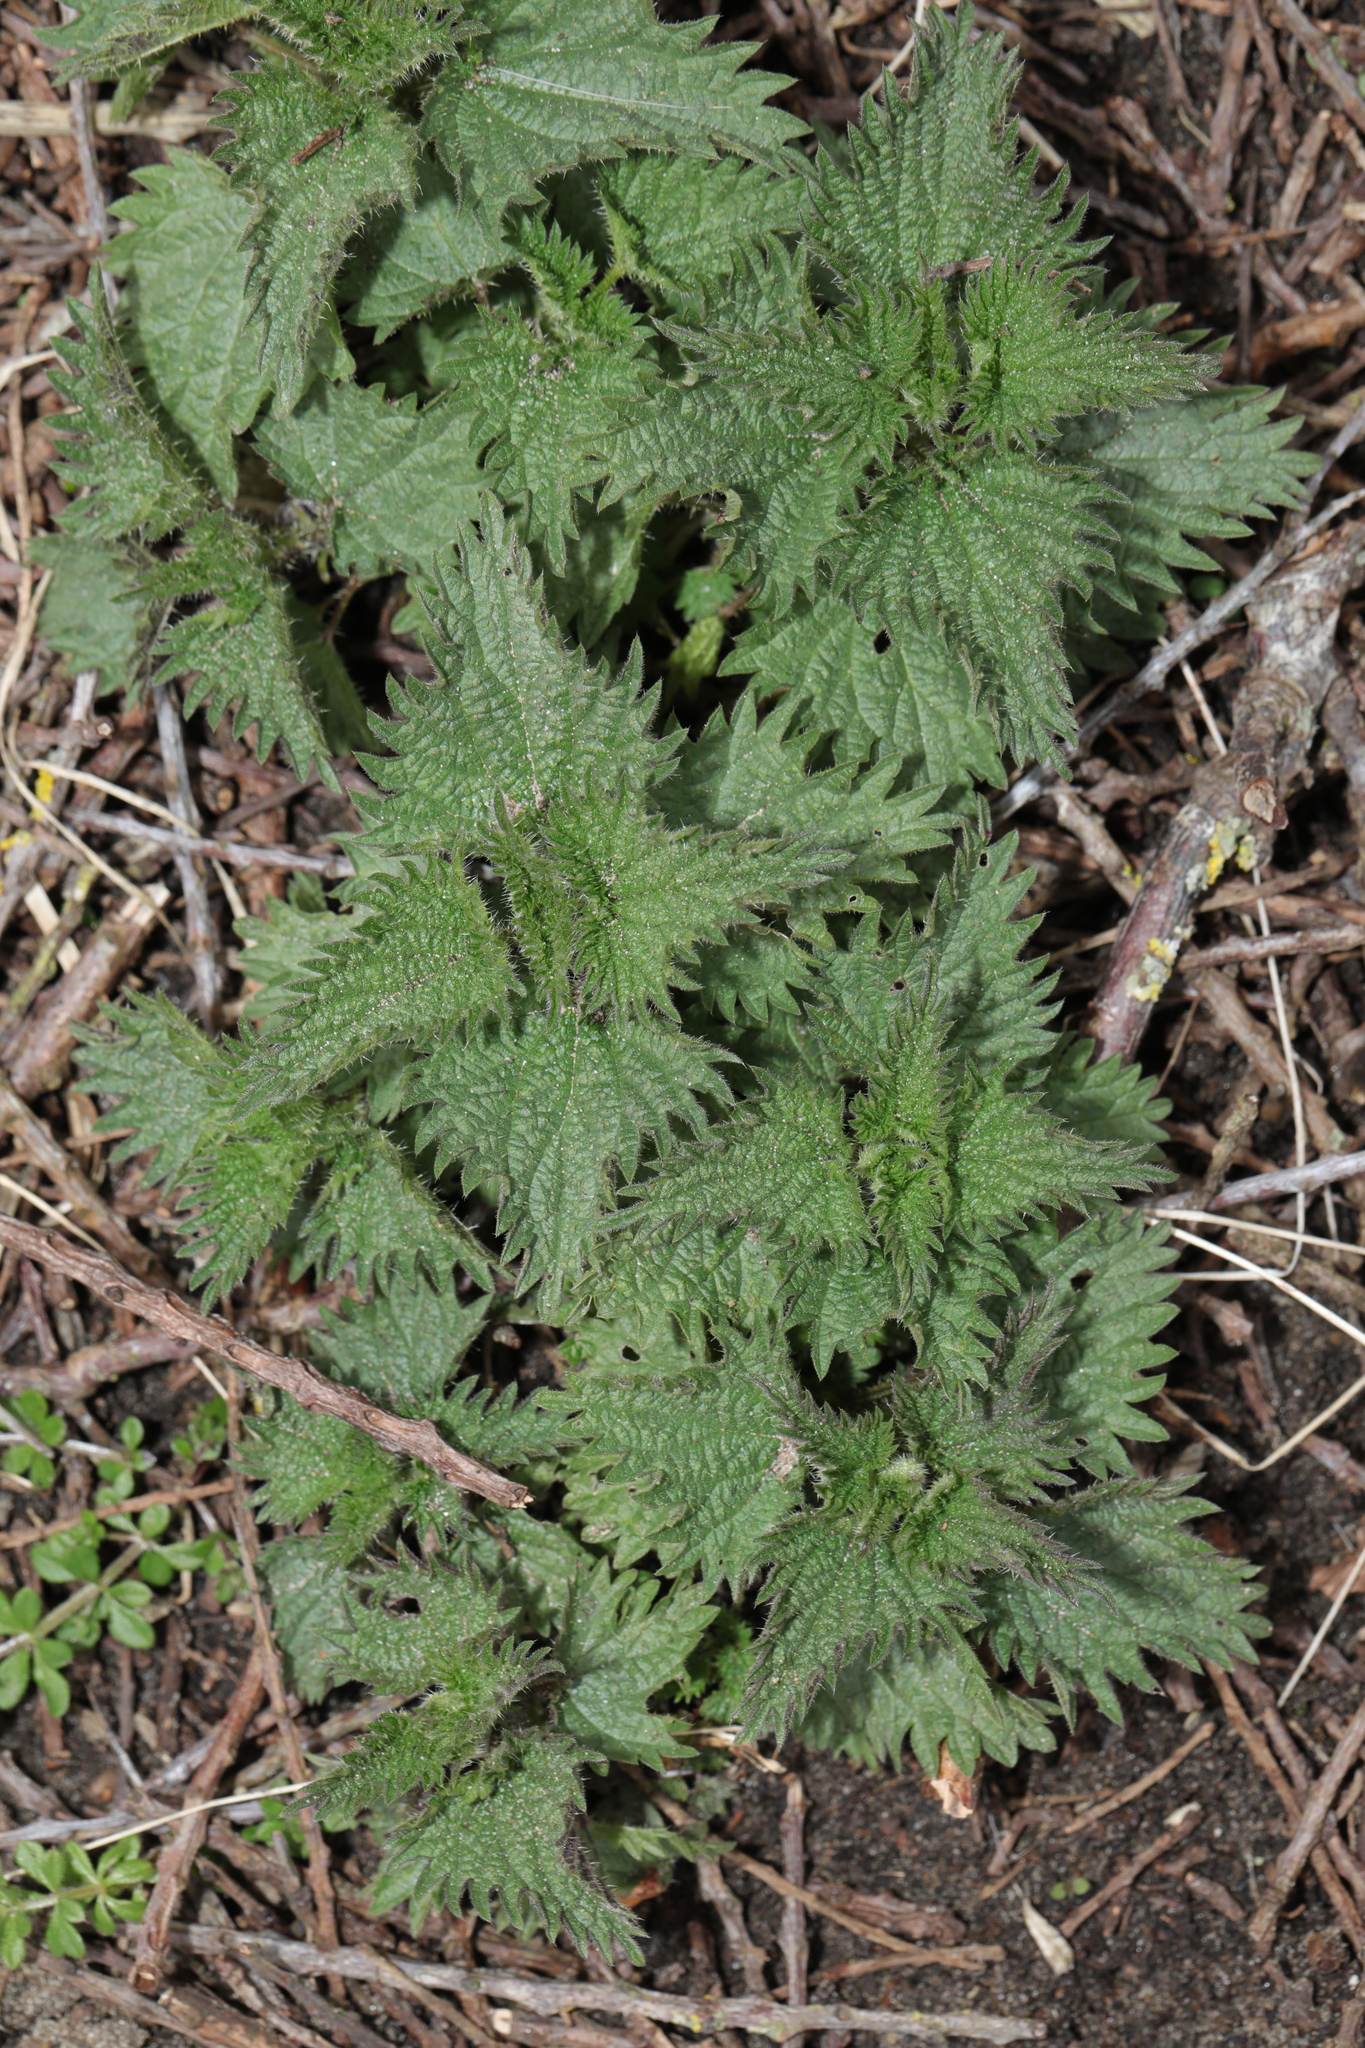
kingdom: Plantae
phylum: Tracheophyta
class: Magnoliopsida
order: Rosales
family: Urticaceae
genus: Urtica
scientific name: Urtica dioica
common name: Common nettle
